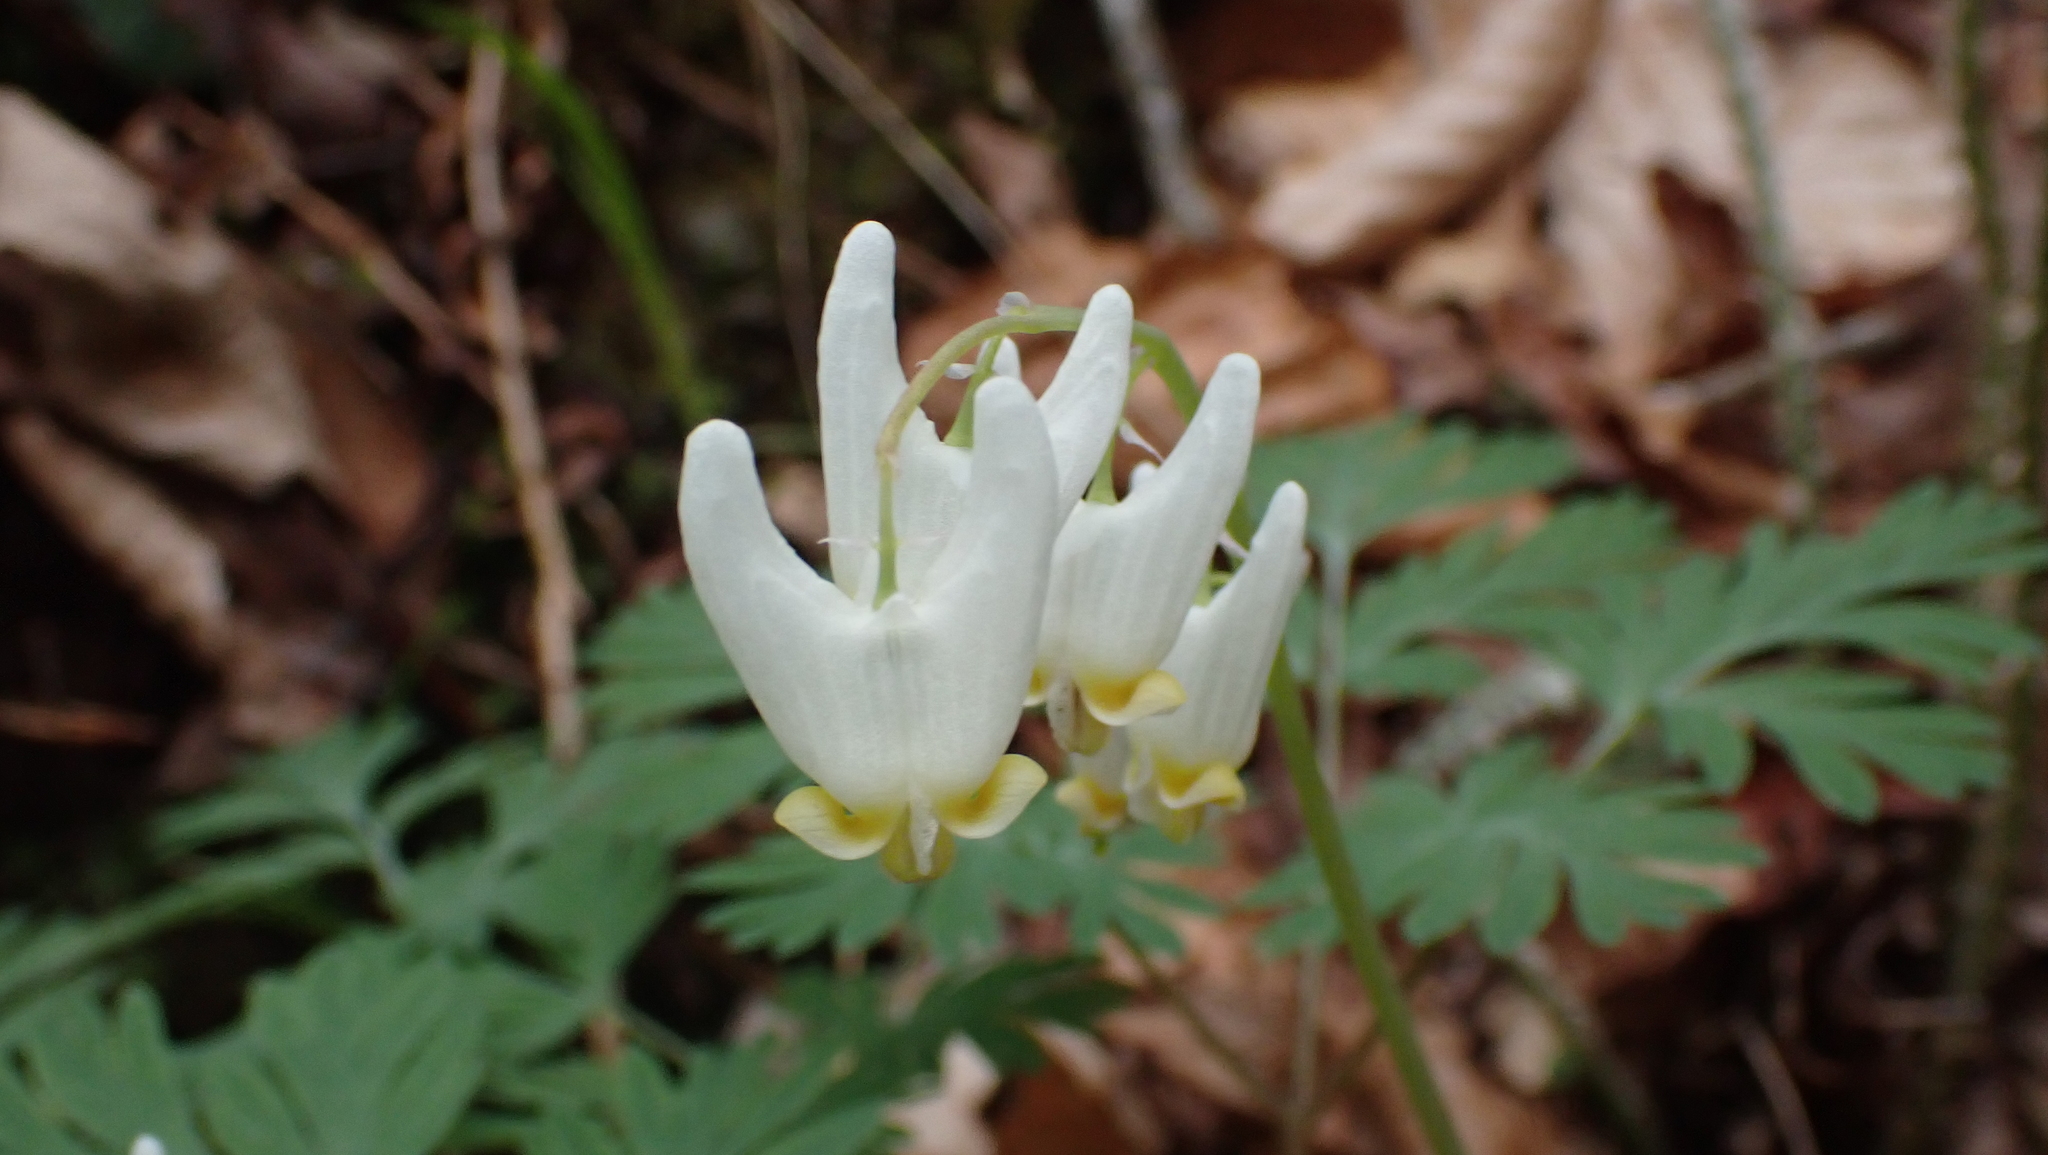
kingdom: Plantae
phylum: Tracheophyta
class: Magnoliopsida
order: Ranunculales
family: Papaveraceae
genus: Dicentra
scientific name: Dicentra cucullaria
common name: Dutchman's breeches
